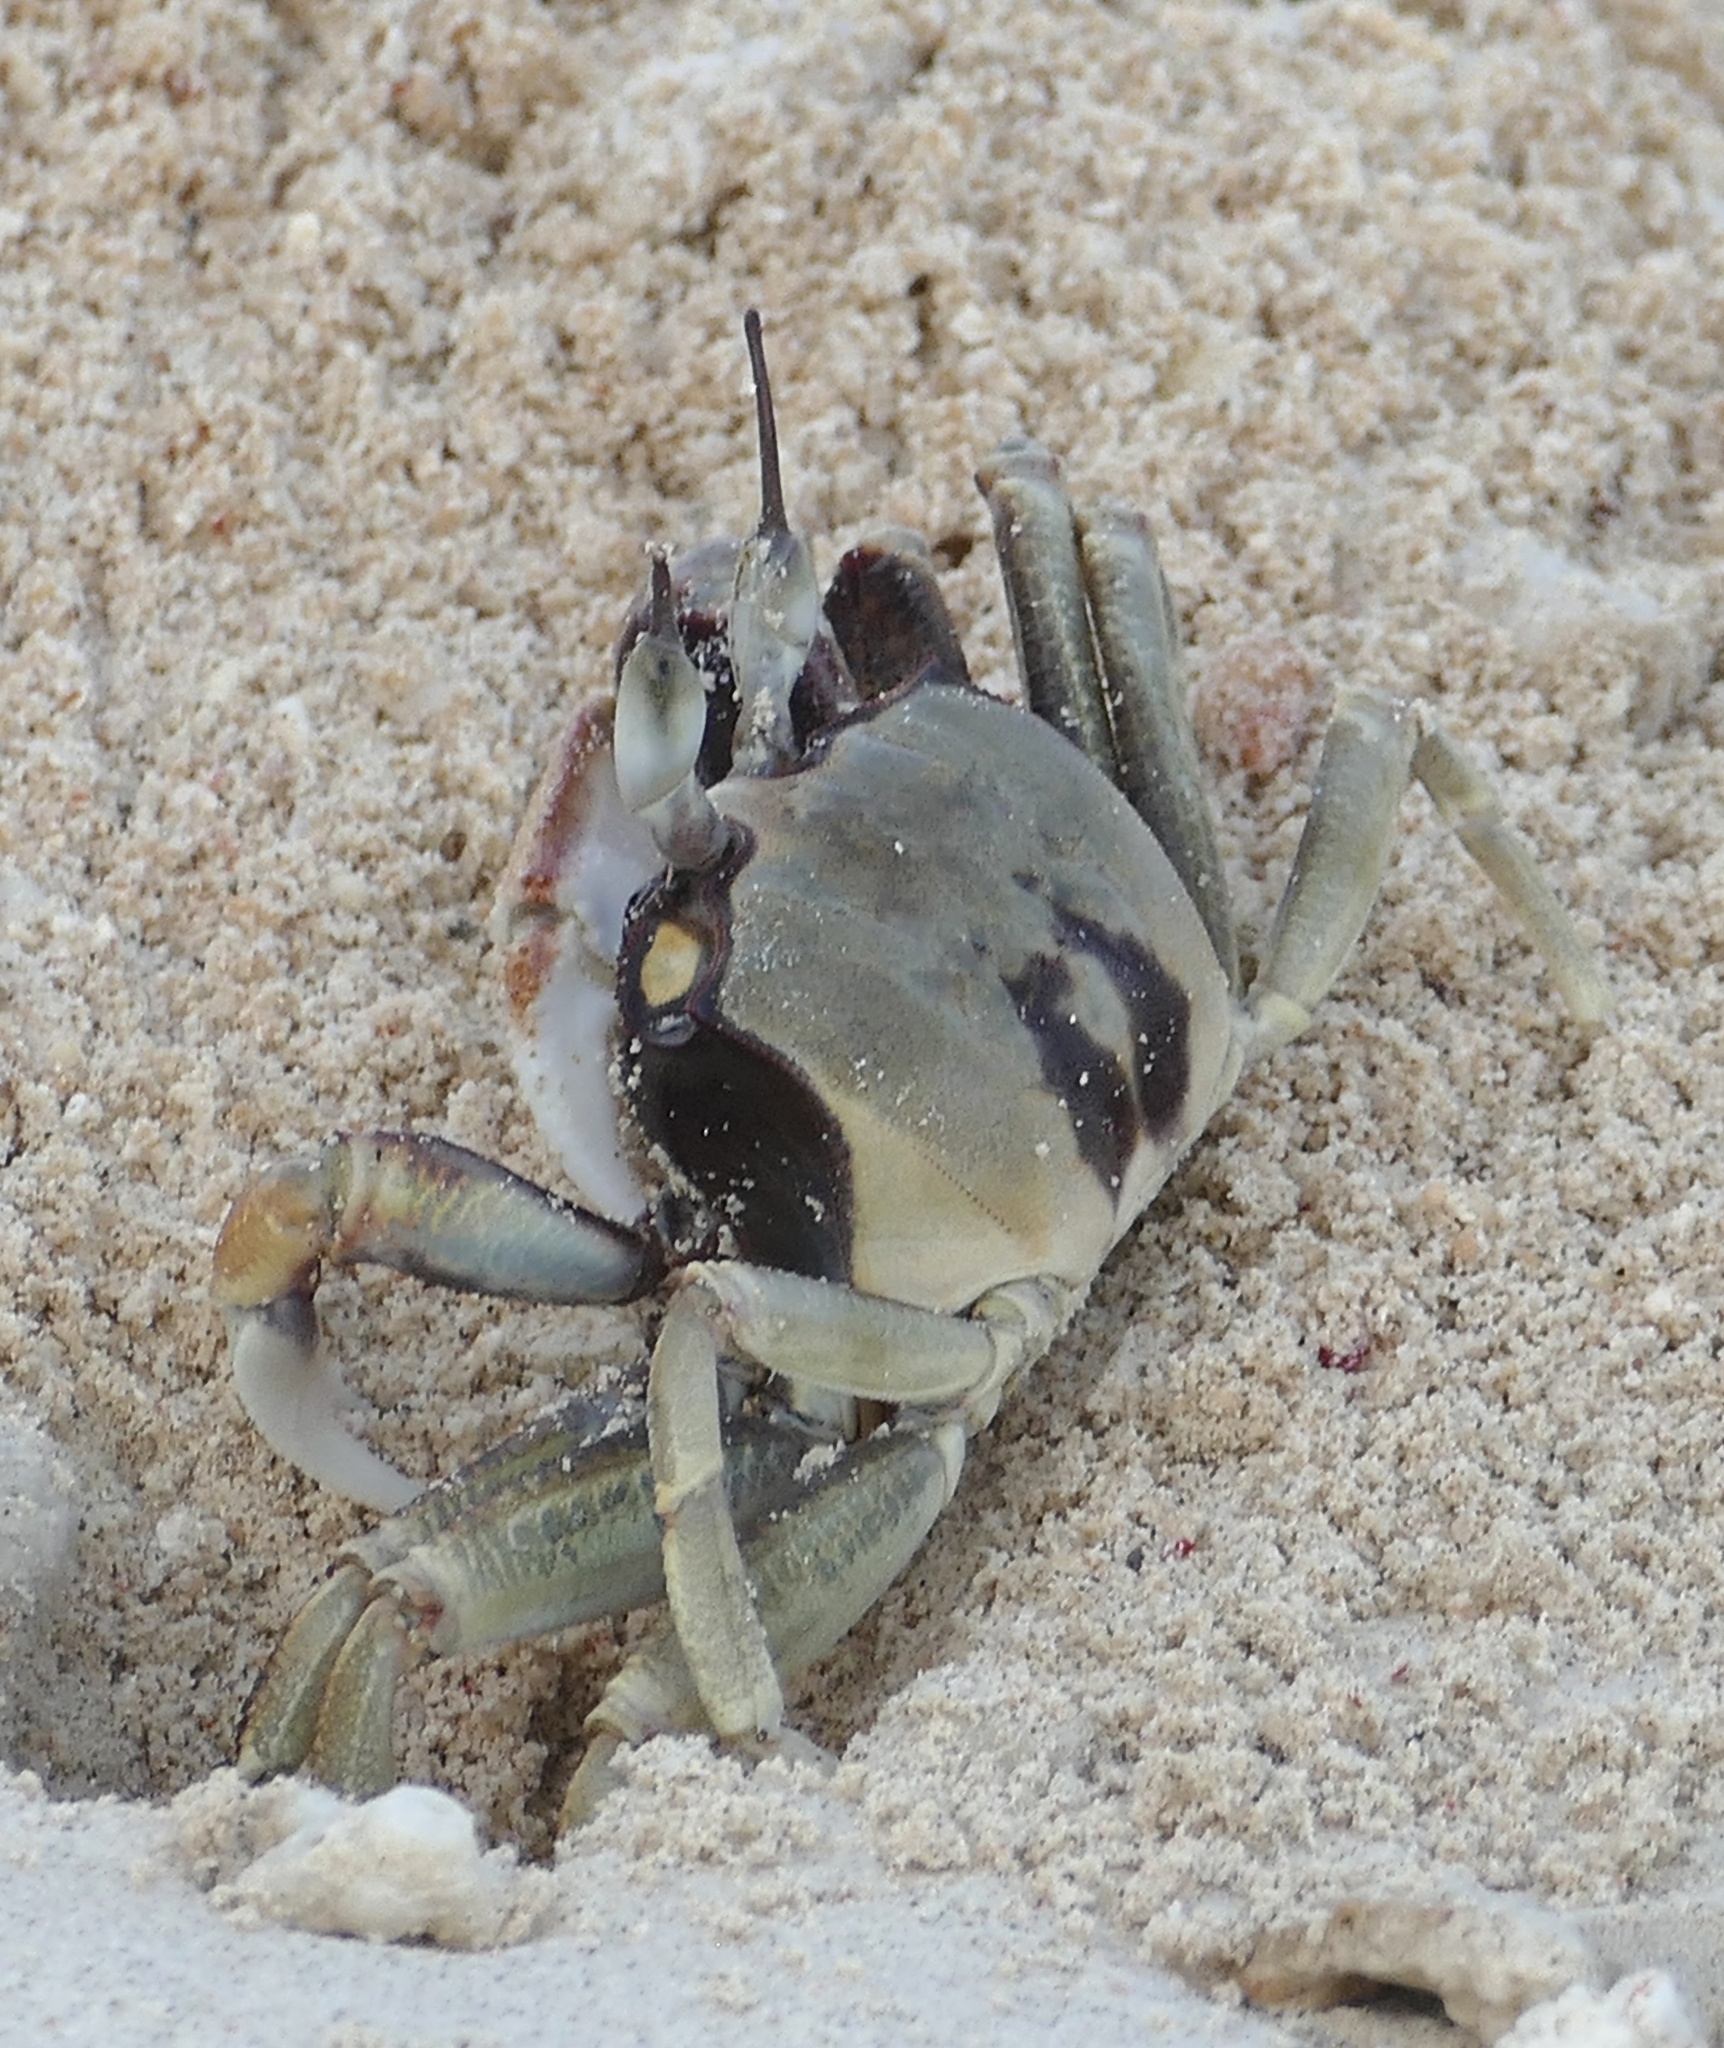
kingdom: Animalia
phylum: Arthropoda
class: Malacostraca
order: Decapoda
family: Ocypodidae
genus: Ocypode
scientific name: Ocypode ceratophthalmus
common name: Indo-pacific ghost crab
